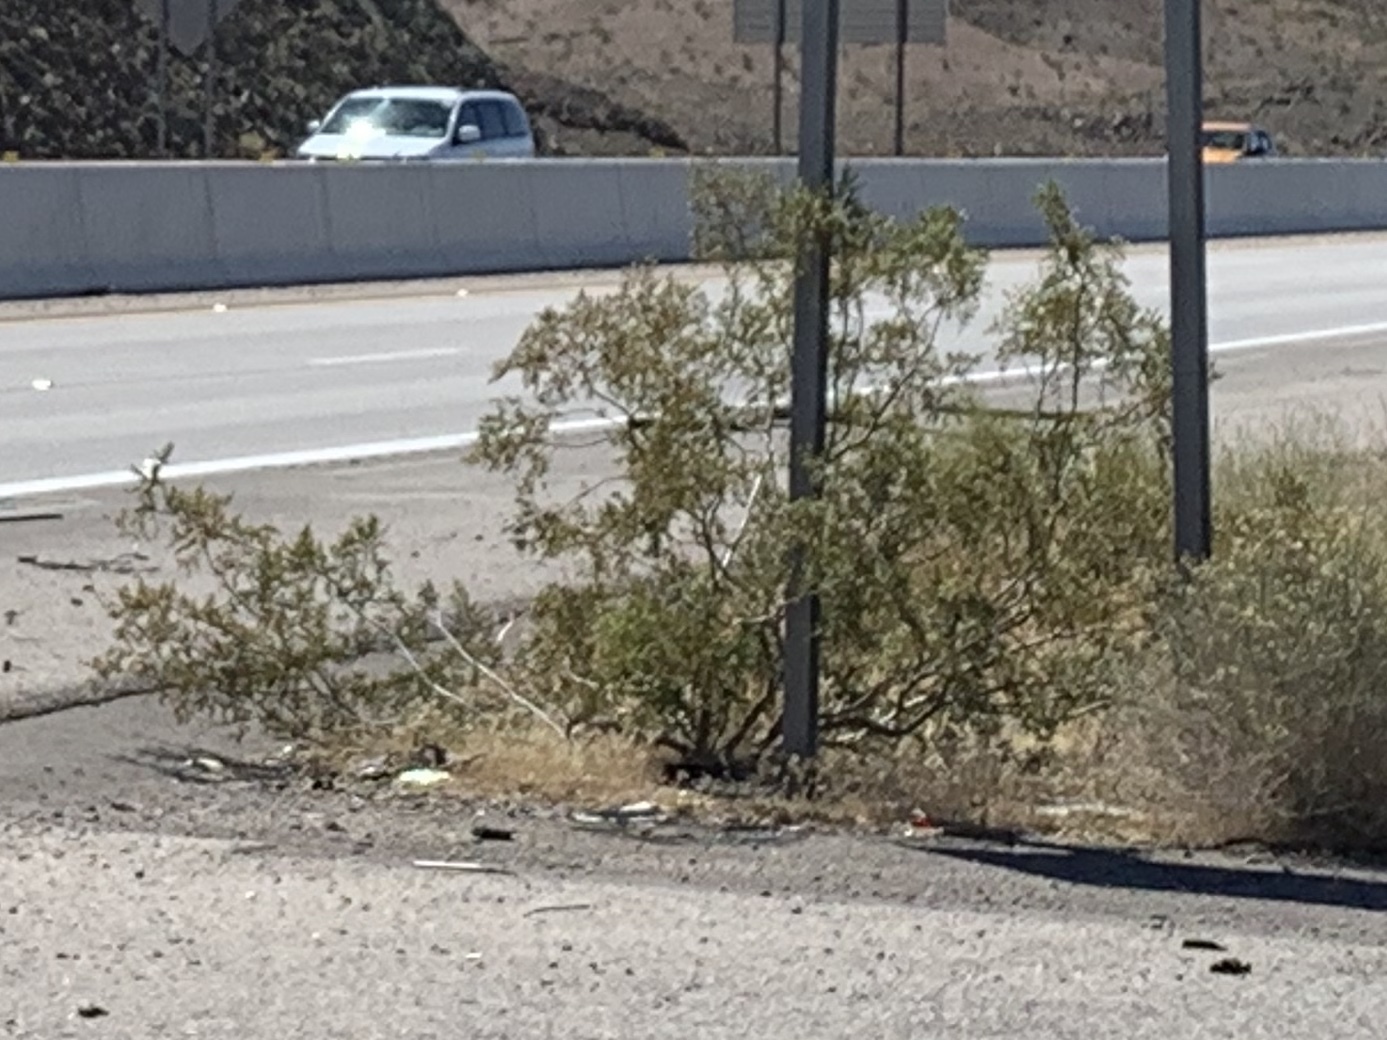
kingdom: Plantae
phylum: Tracheophyta
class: Magnoliopsida
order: Zygophyllales
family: Zygophyllaceae
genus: Larrea
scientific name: Larrea tridentata
